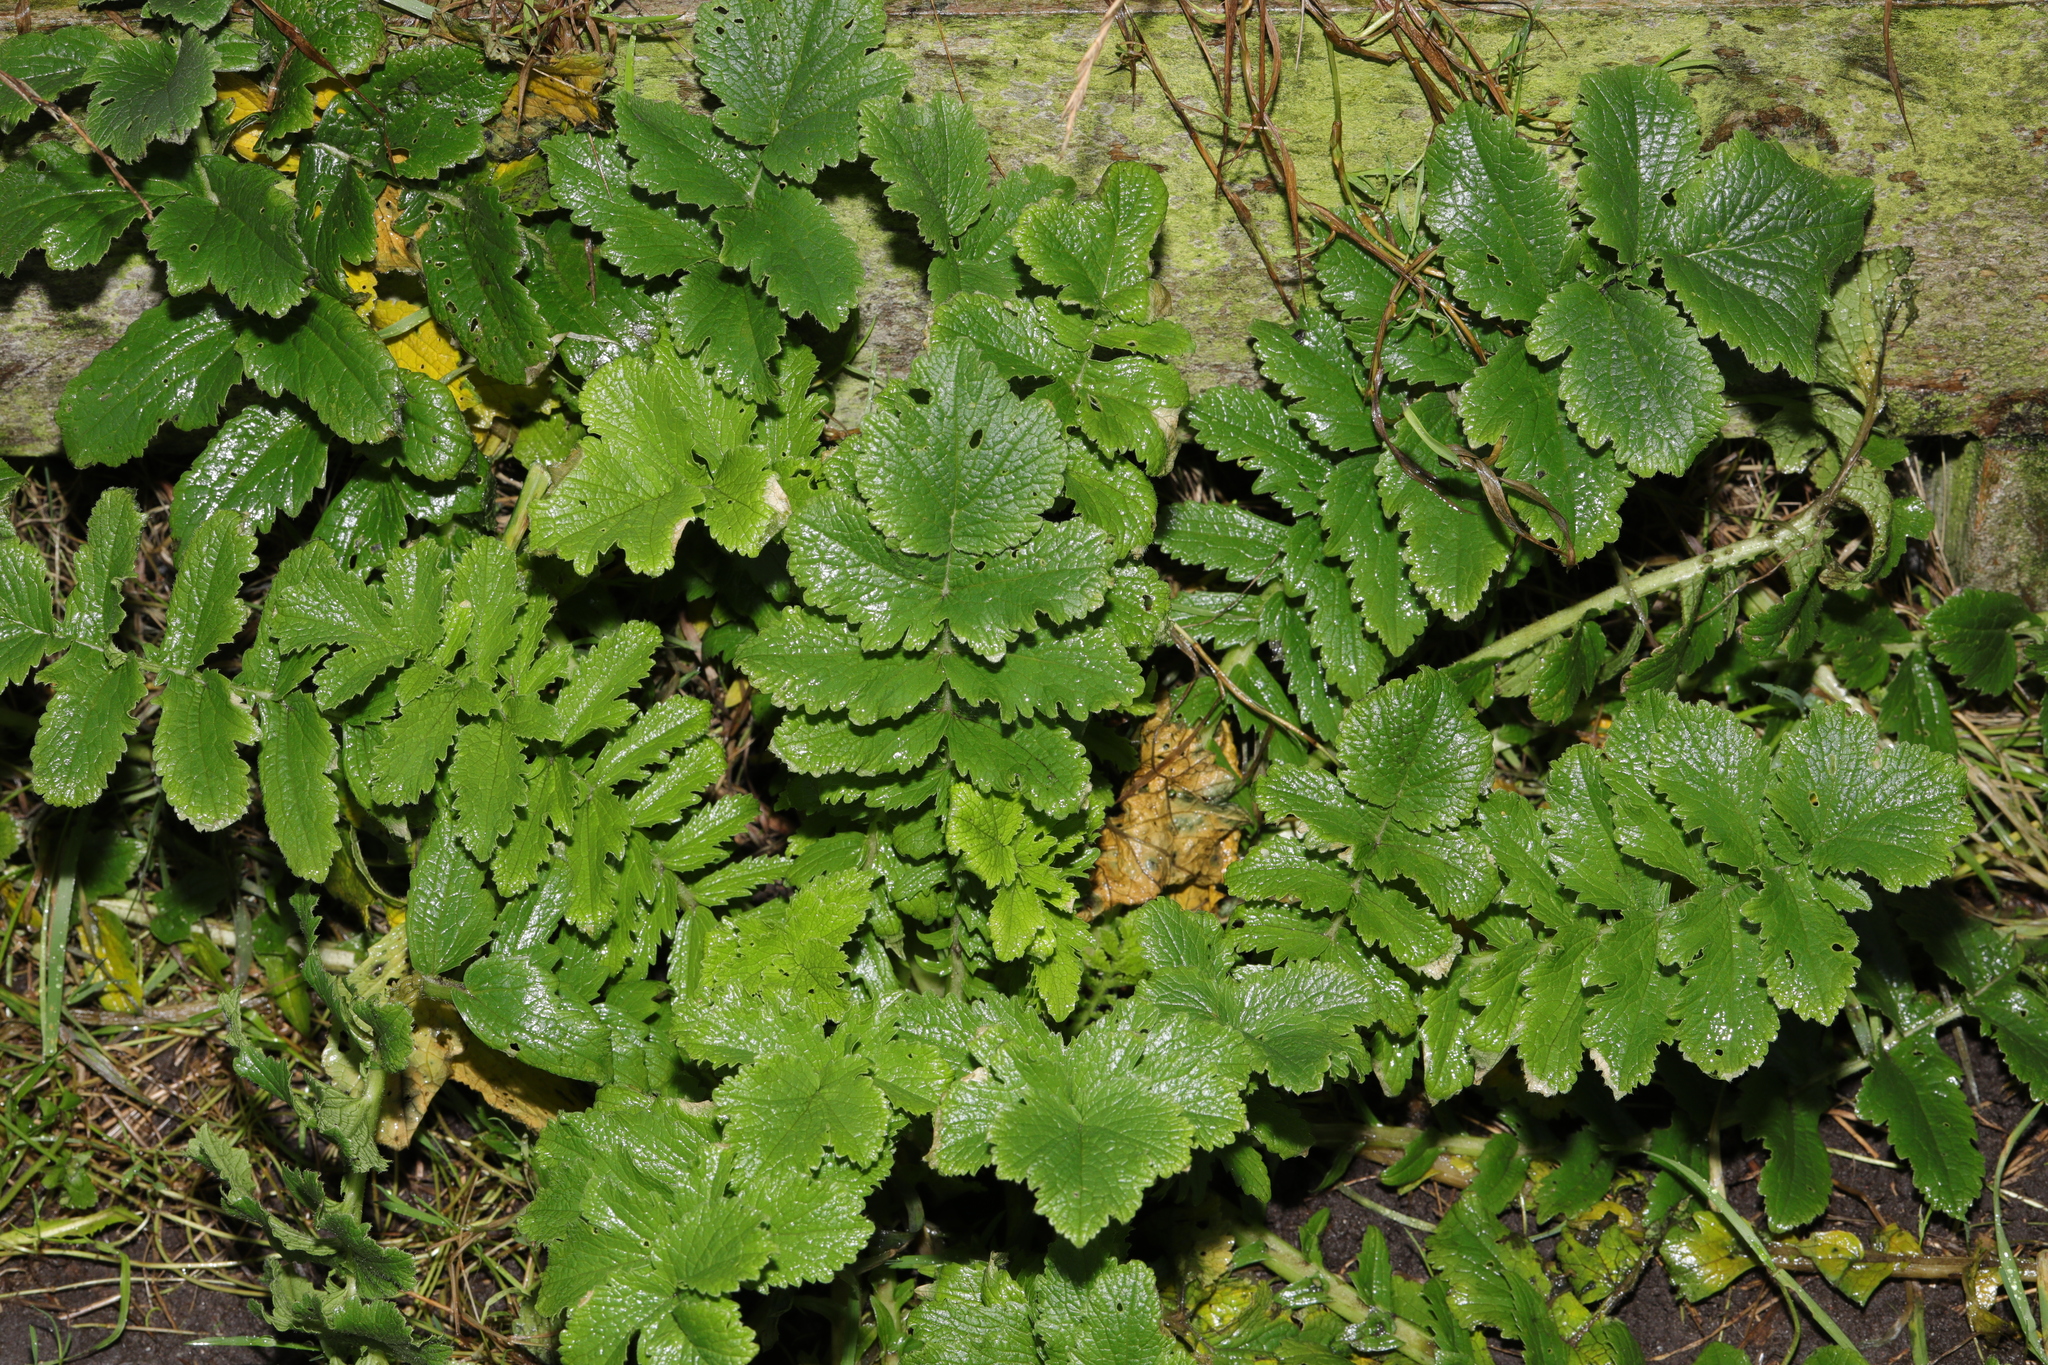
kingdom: Plantae
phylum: Tracheophyta
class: Magnoliopsida
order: Brassicales
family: Brassicaceae
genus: Raphanus
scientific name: Raphanus raphanistrum
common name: Wild radish
